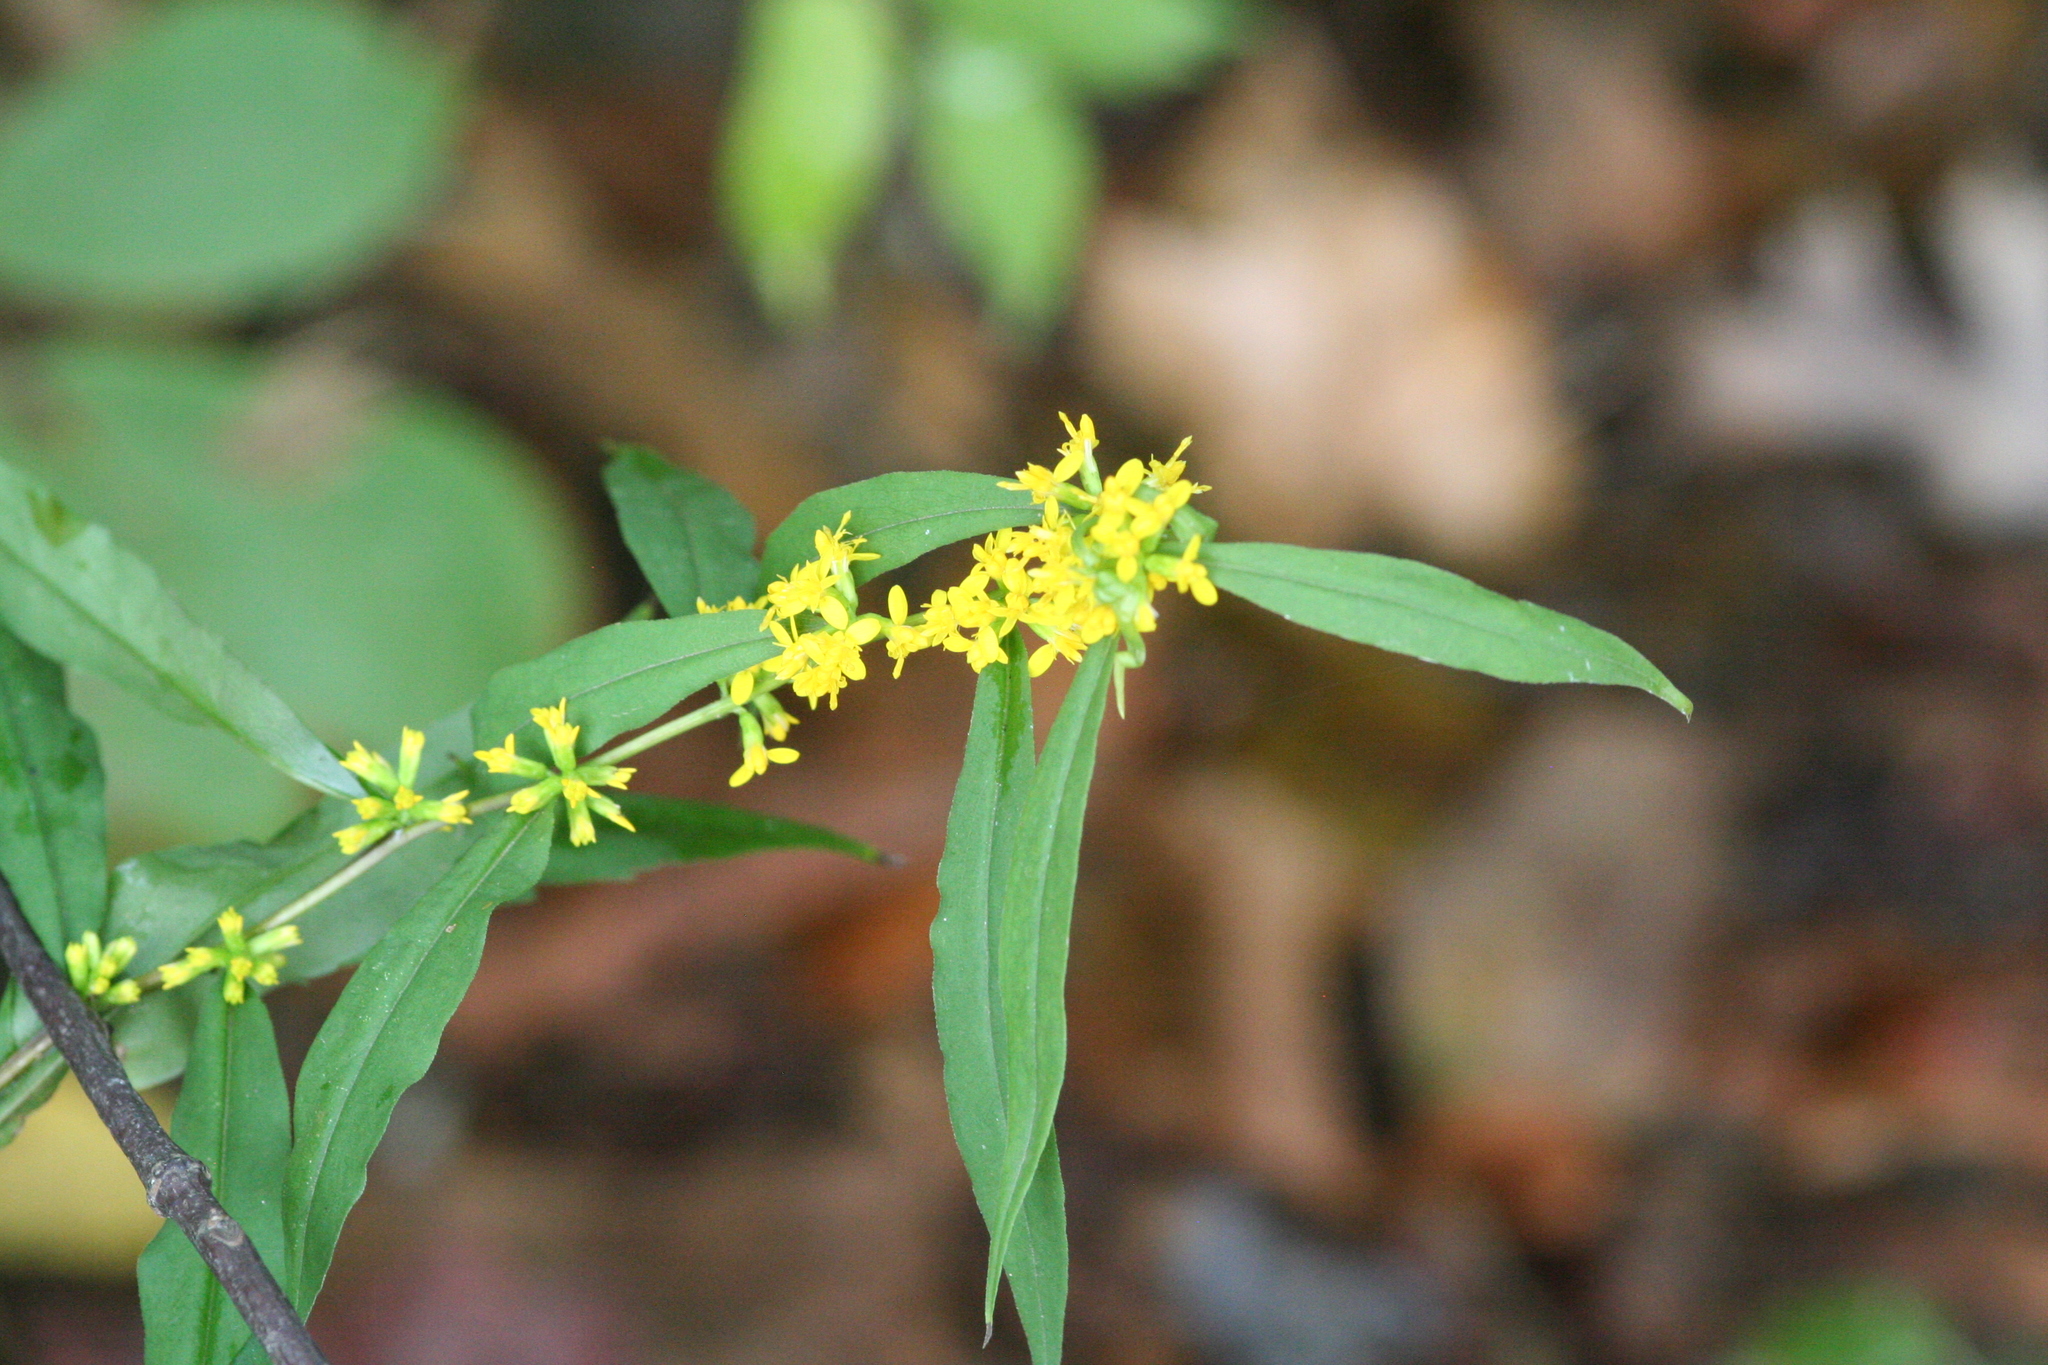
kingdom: Plantae
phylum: Tracheophyta
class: Magnoliopsida
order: Asterales
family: Asteraceae
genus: Solidago
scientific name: Solidago caesia
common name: Woodland goldenrod
